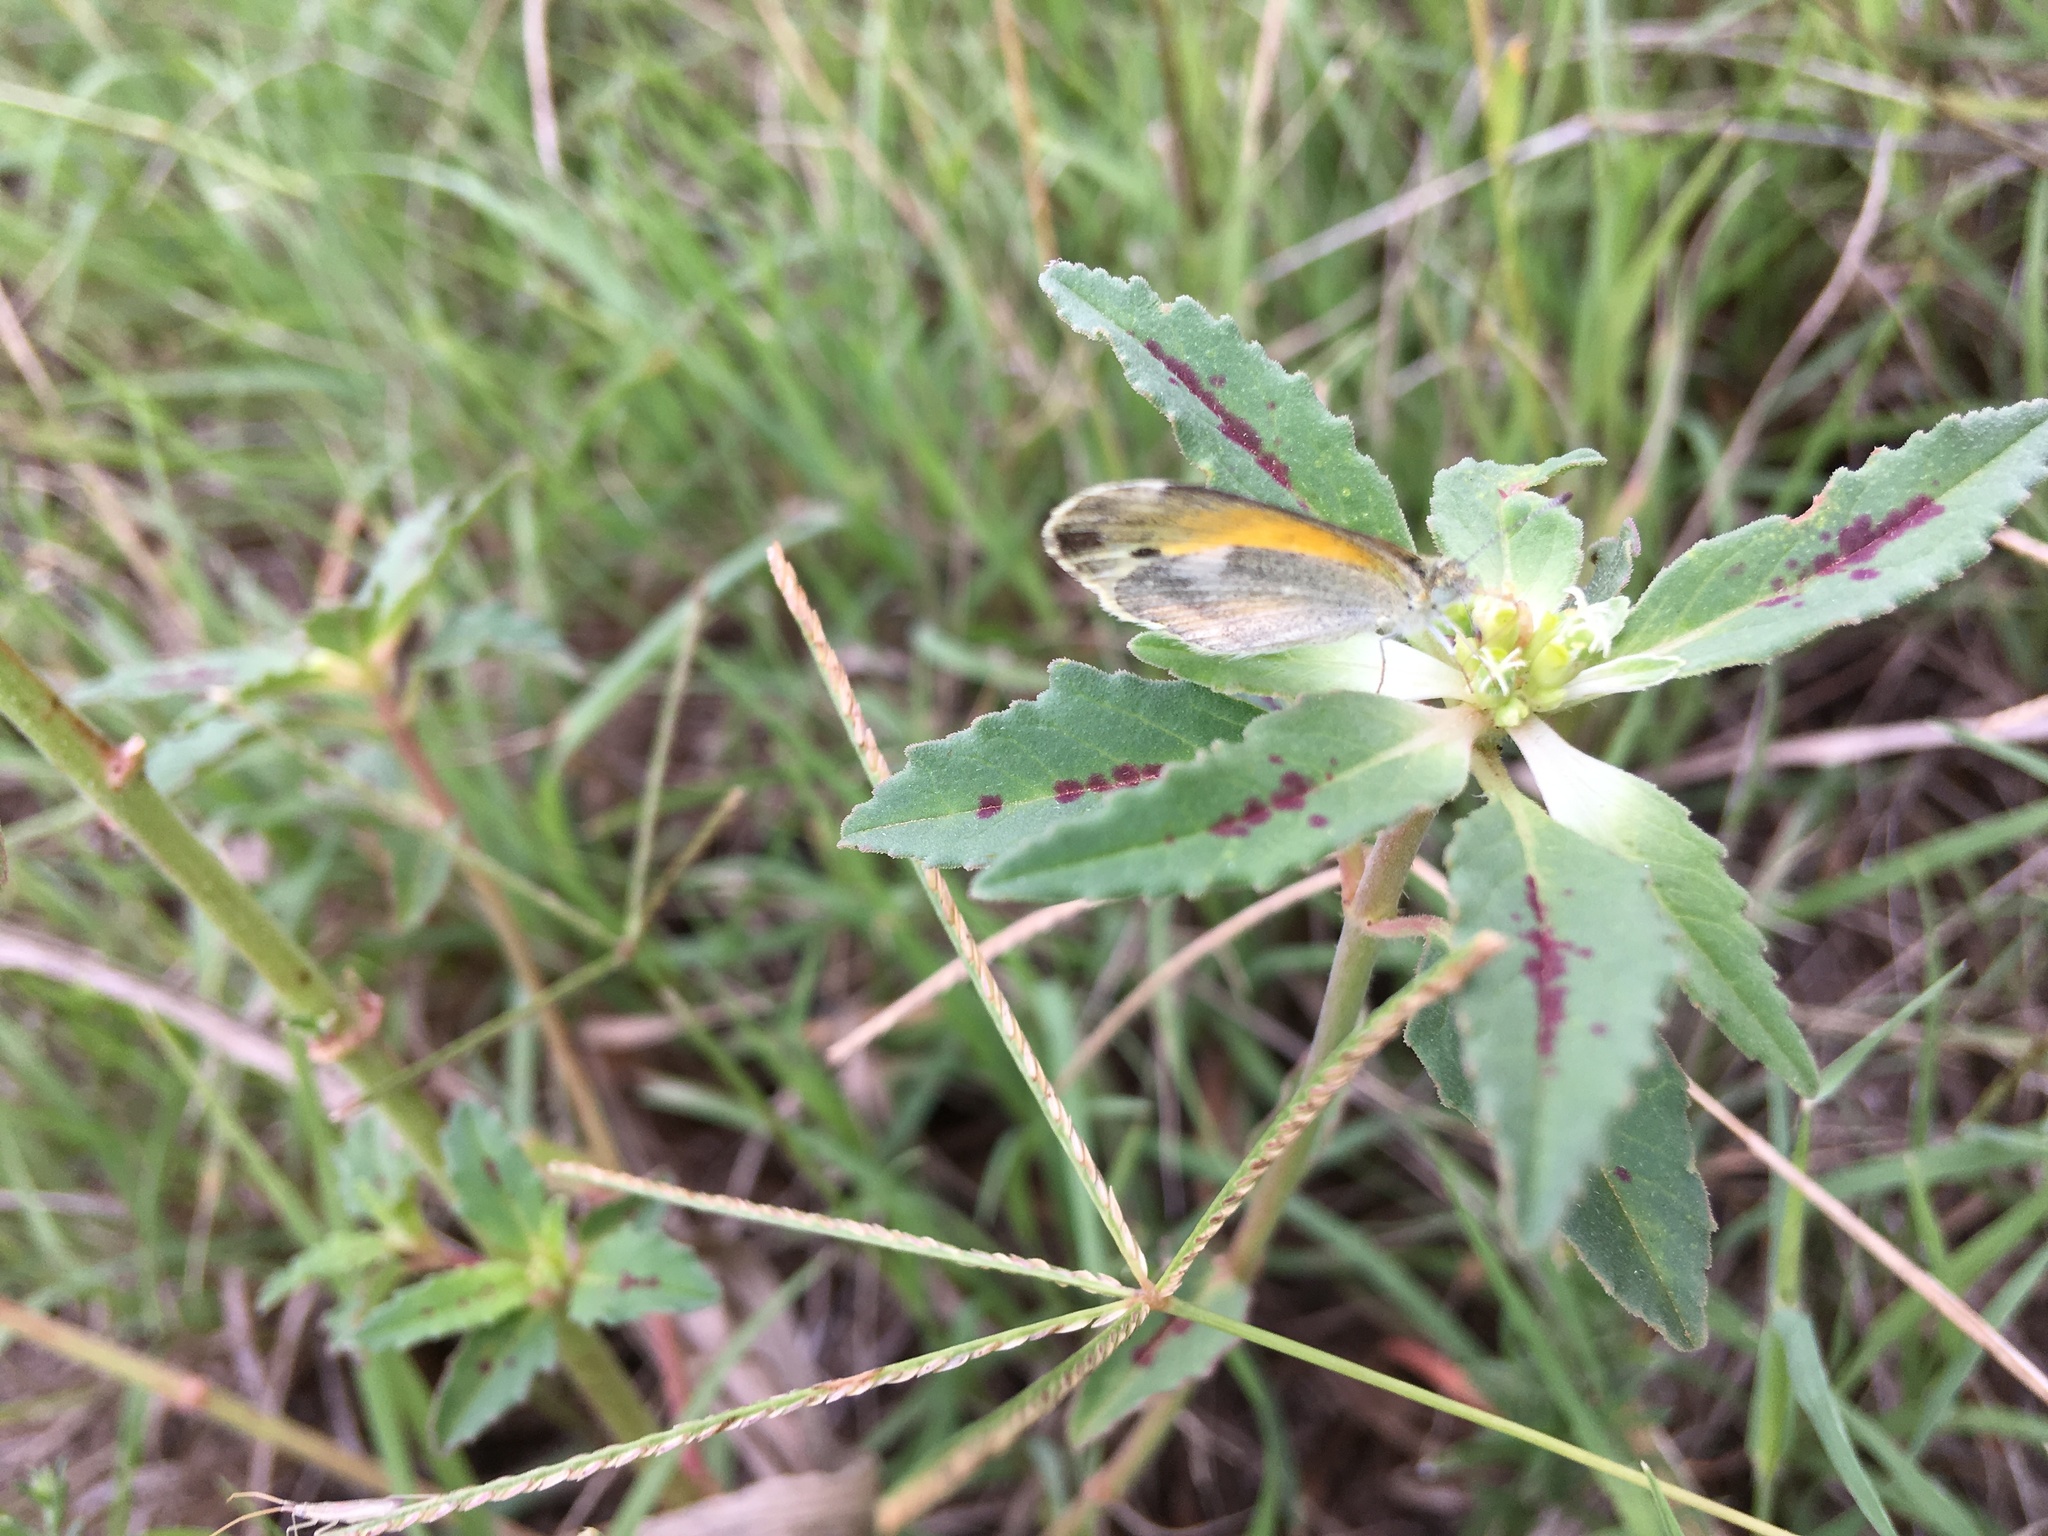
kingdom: Animalia
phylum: Arthropoda
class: Insecta
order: Lepidoptera
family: Pieridae
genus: Nathalis
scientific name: Nathalis iole
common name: Dainty sulphur
